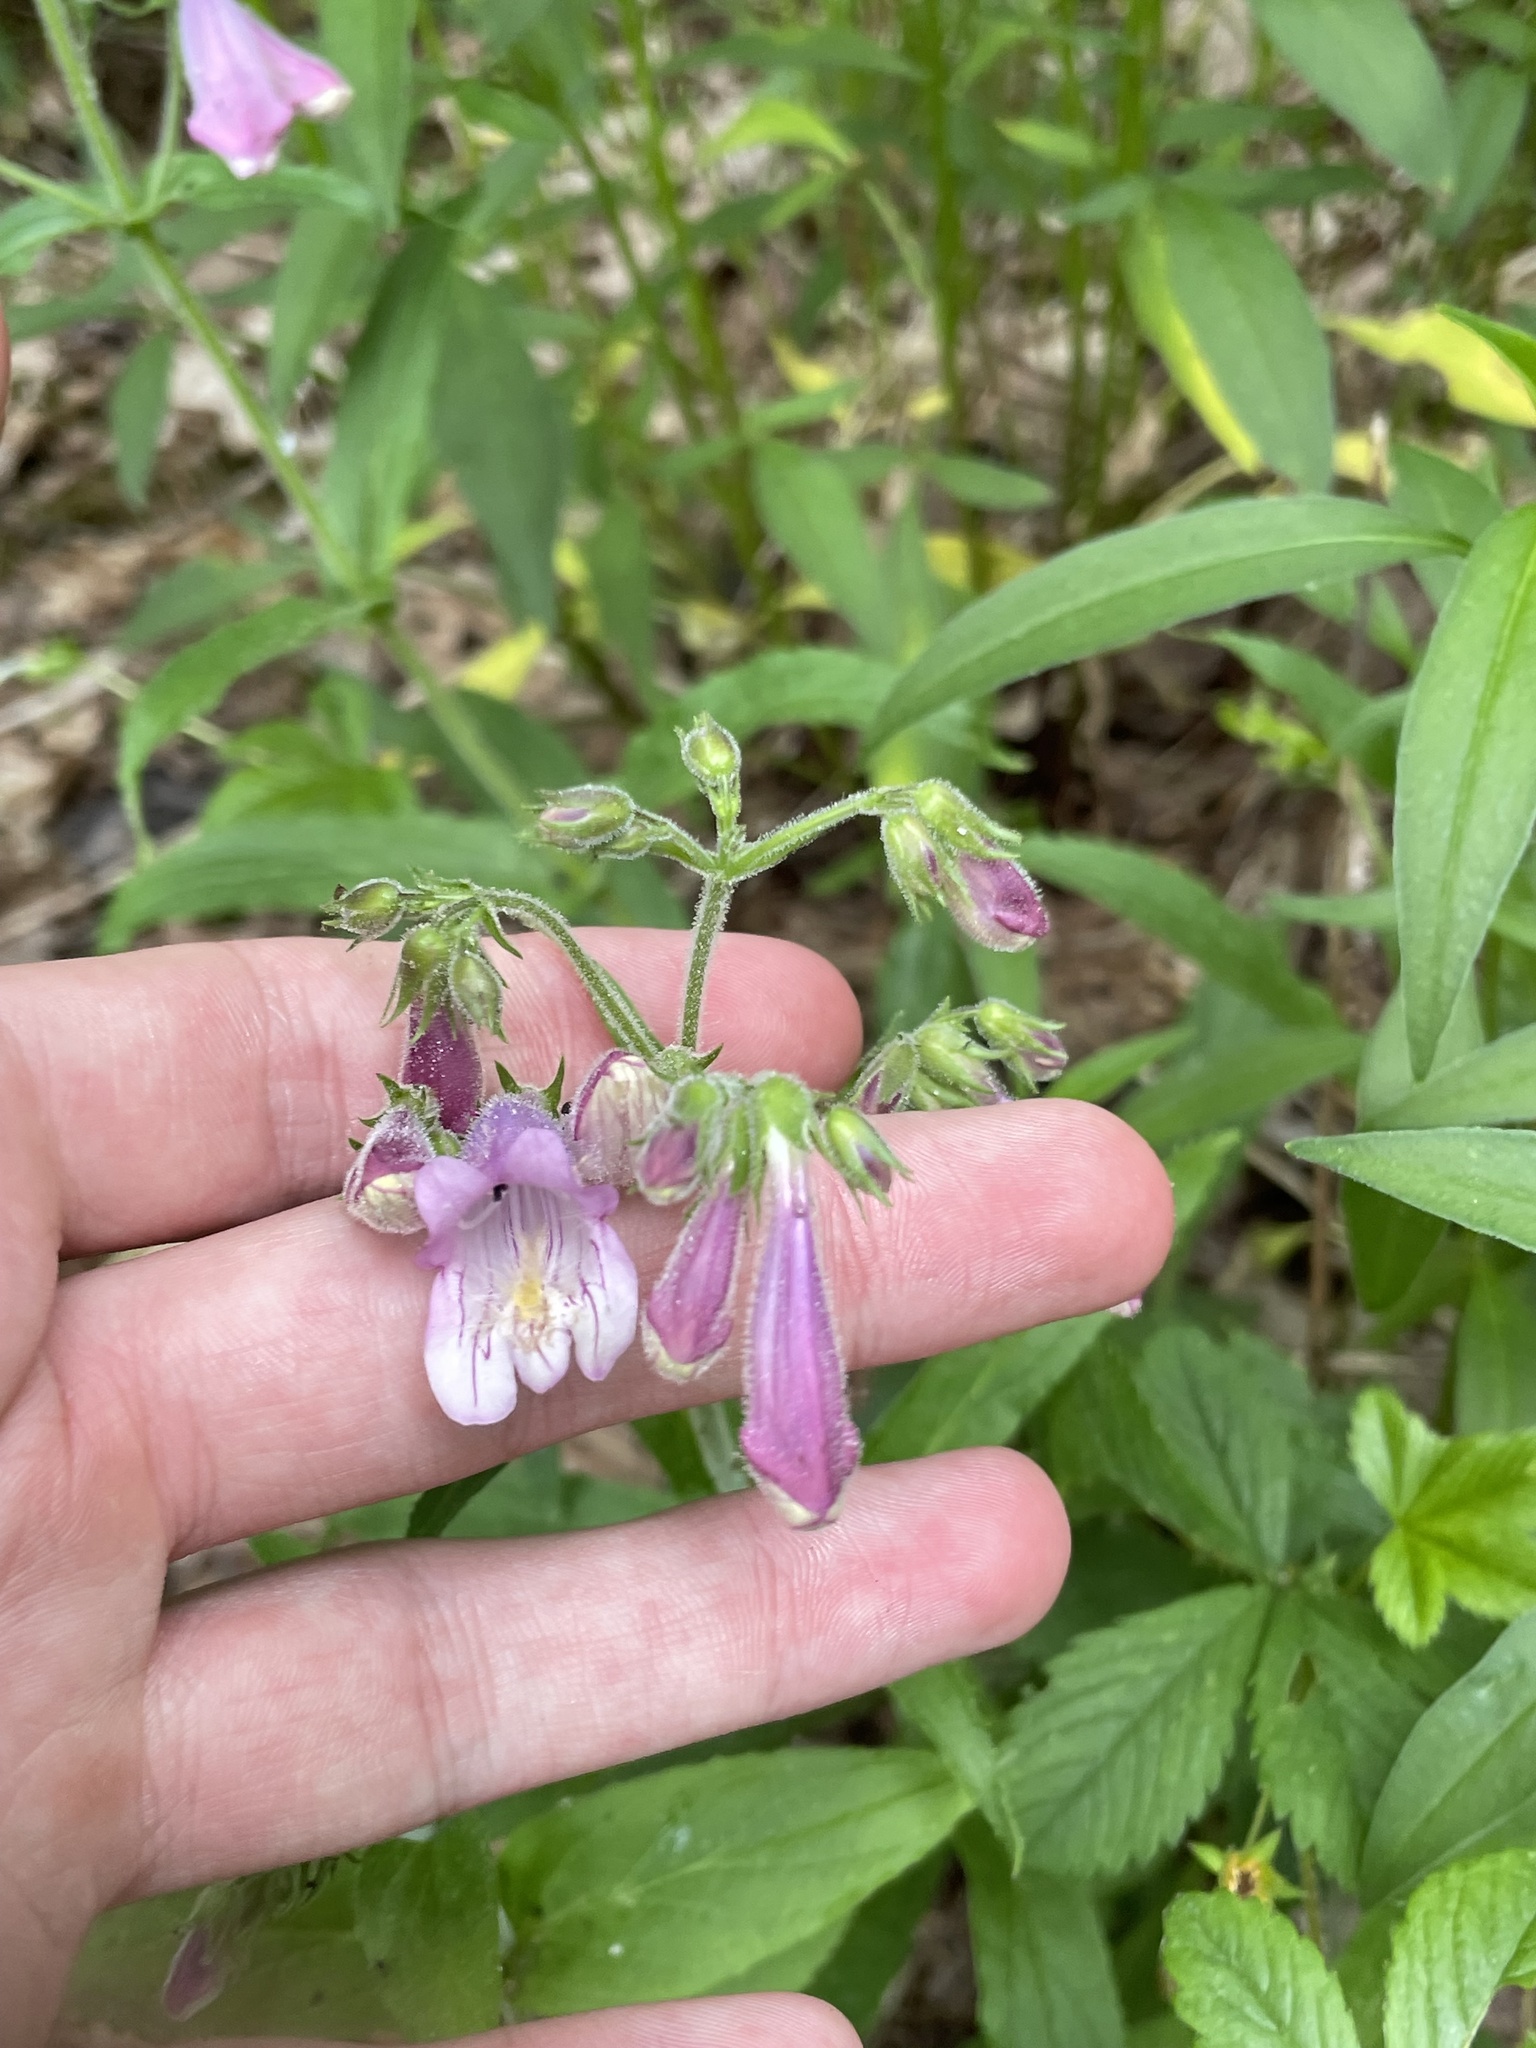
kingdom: Plantae
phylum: Tracheophyta
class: Magnoliopsida
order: Lamiales
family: Plantaginaceae
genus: Penstemon
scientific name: Penstemon smallii
